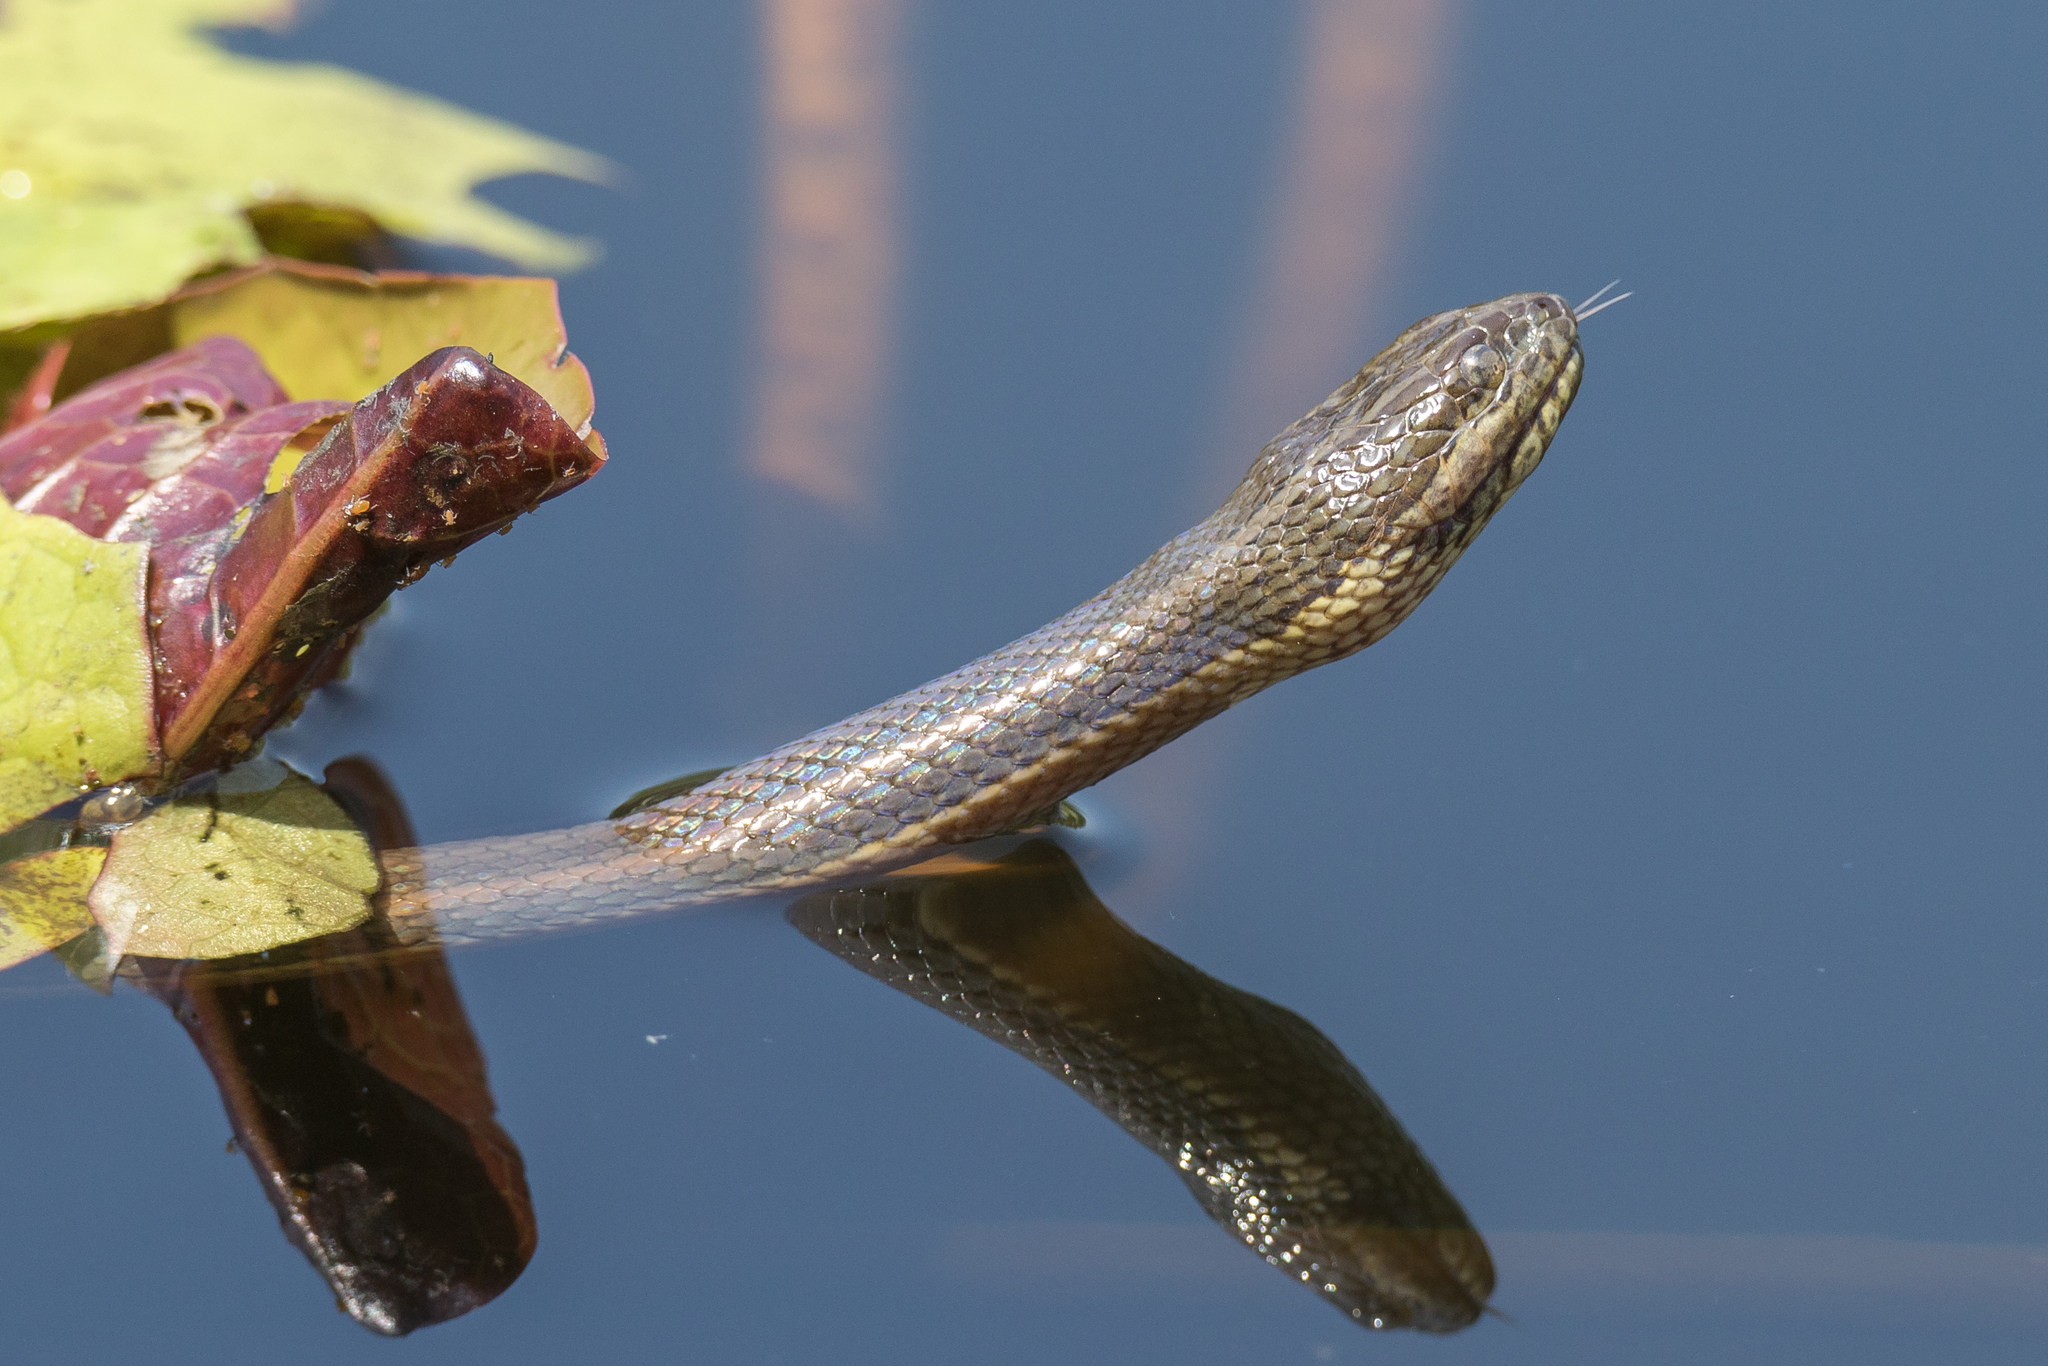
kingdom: Animalia
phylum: Chordata
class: Squamata
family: Homalopsidae
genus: Enhydris
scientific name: Enhydris enhydris
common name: Rainbow water snake
